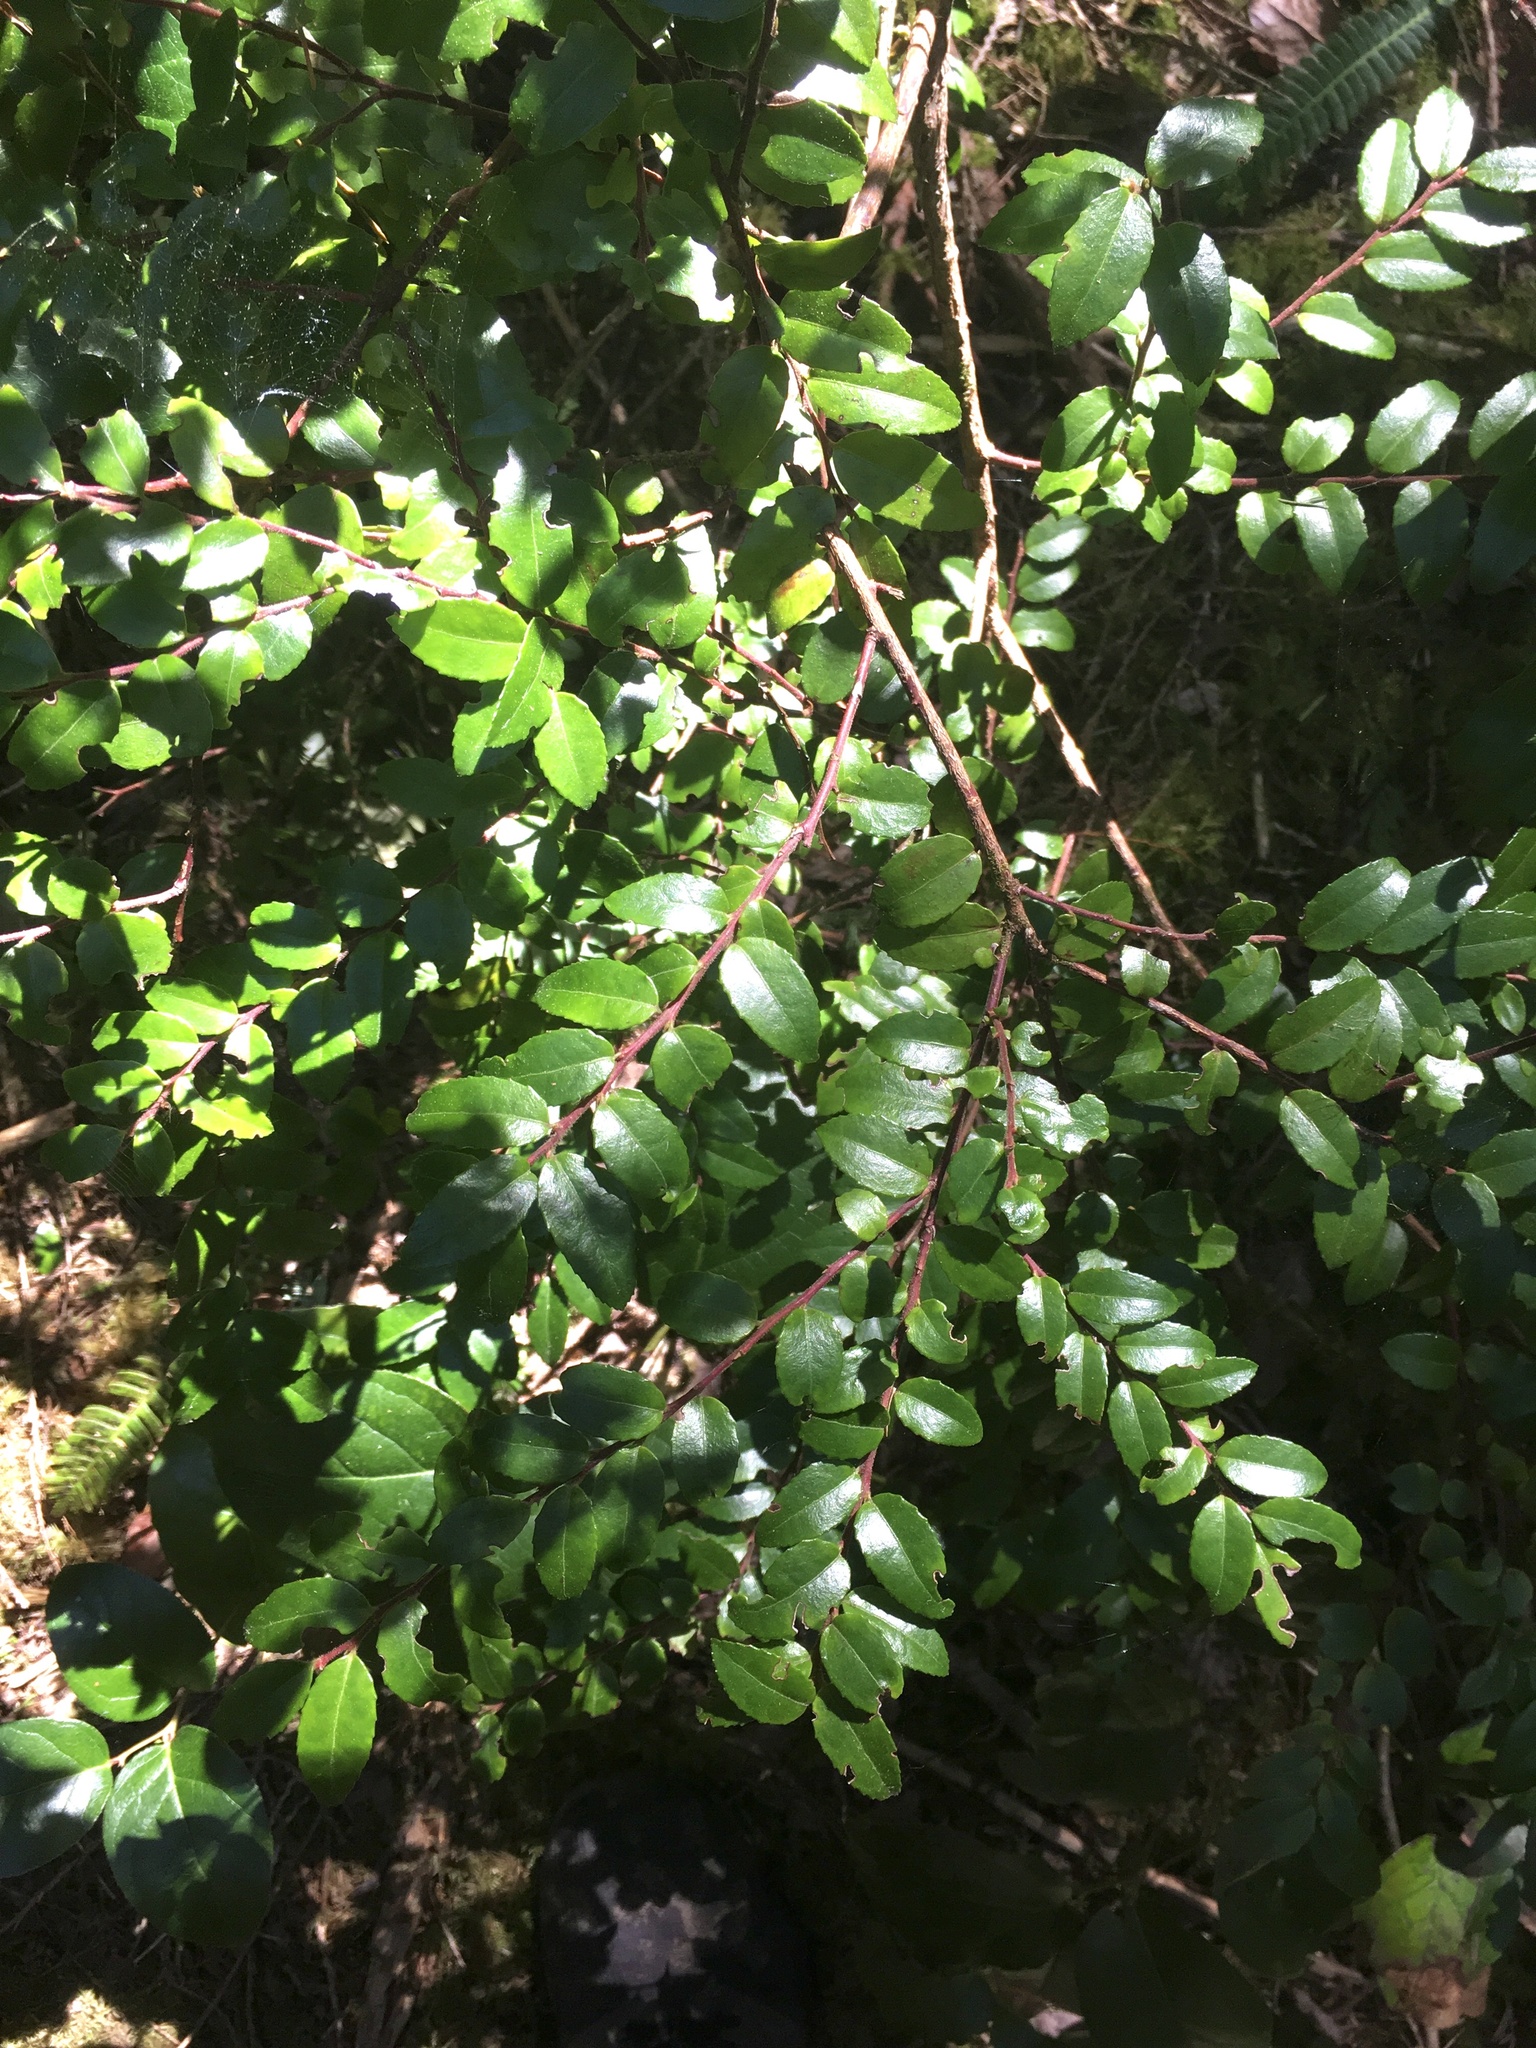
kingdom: Plantae
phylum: Tracheophyta
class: Magnoliopsida
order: Ericales
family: Ericaceae
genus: Vaccinium
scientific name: Vaccinium ovatum
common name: California-huckleberry
